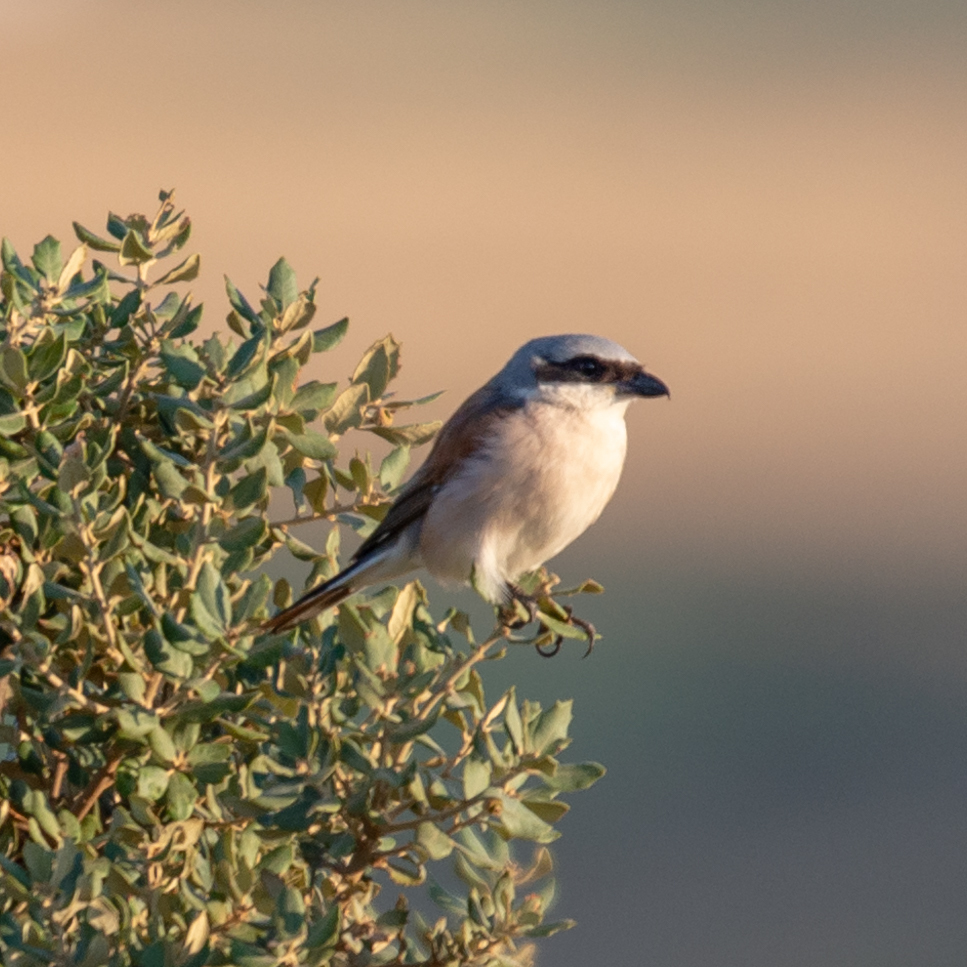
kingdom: Animalia
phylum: Chordata
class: Aves
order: Passeriformes
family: Laniidae
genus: Lanius
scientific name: Lanius collurio
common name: Red-backed shrike
